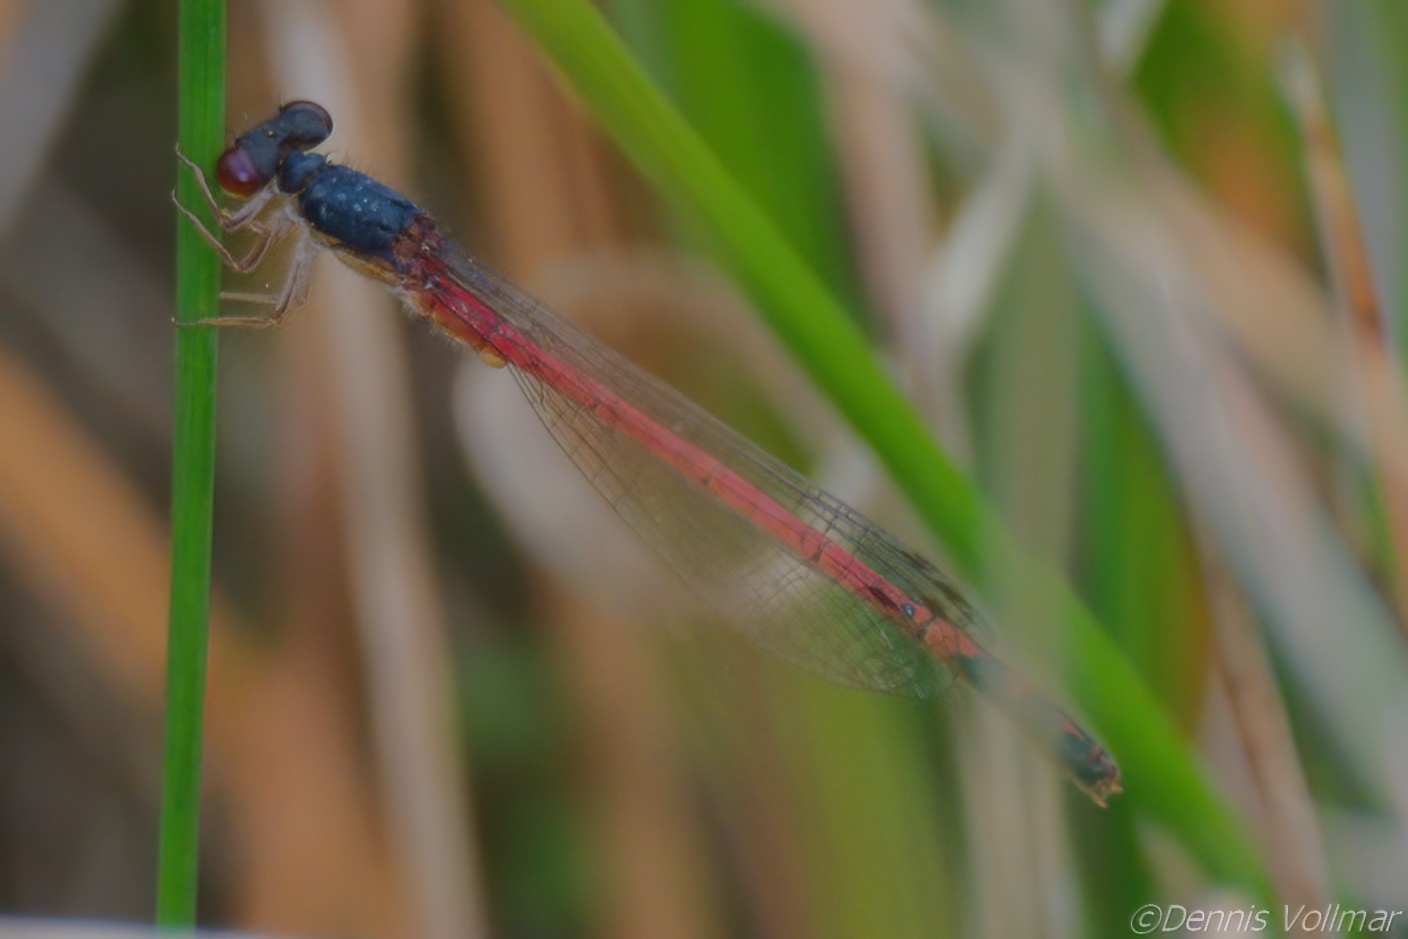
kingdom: Animalia
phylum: Arthropoda
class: Insecta
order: Odonata
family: Coenagrionidae
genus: Amphiagrion
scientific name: Amphiagrion saucium
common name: Eastern red damsel
